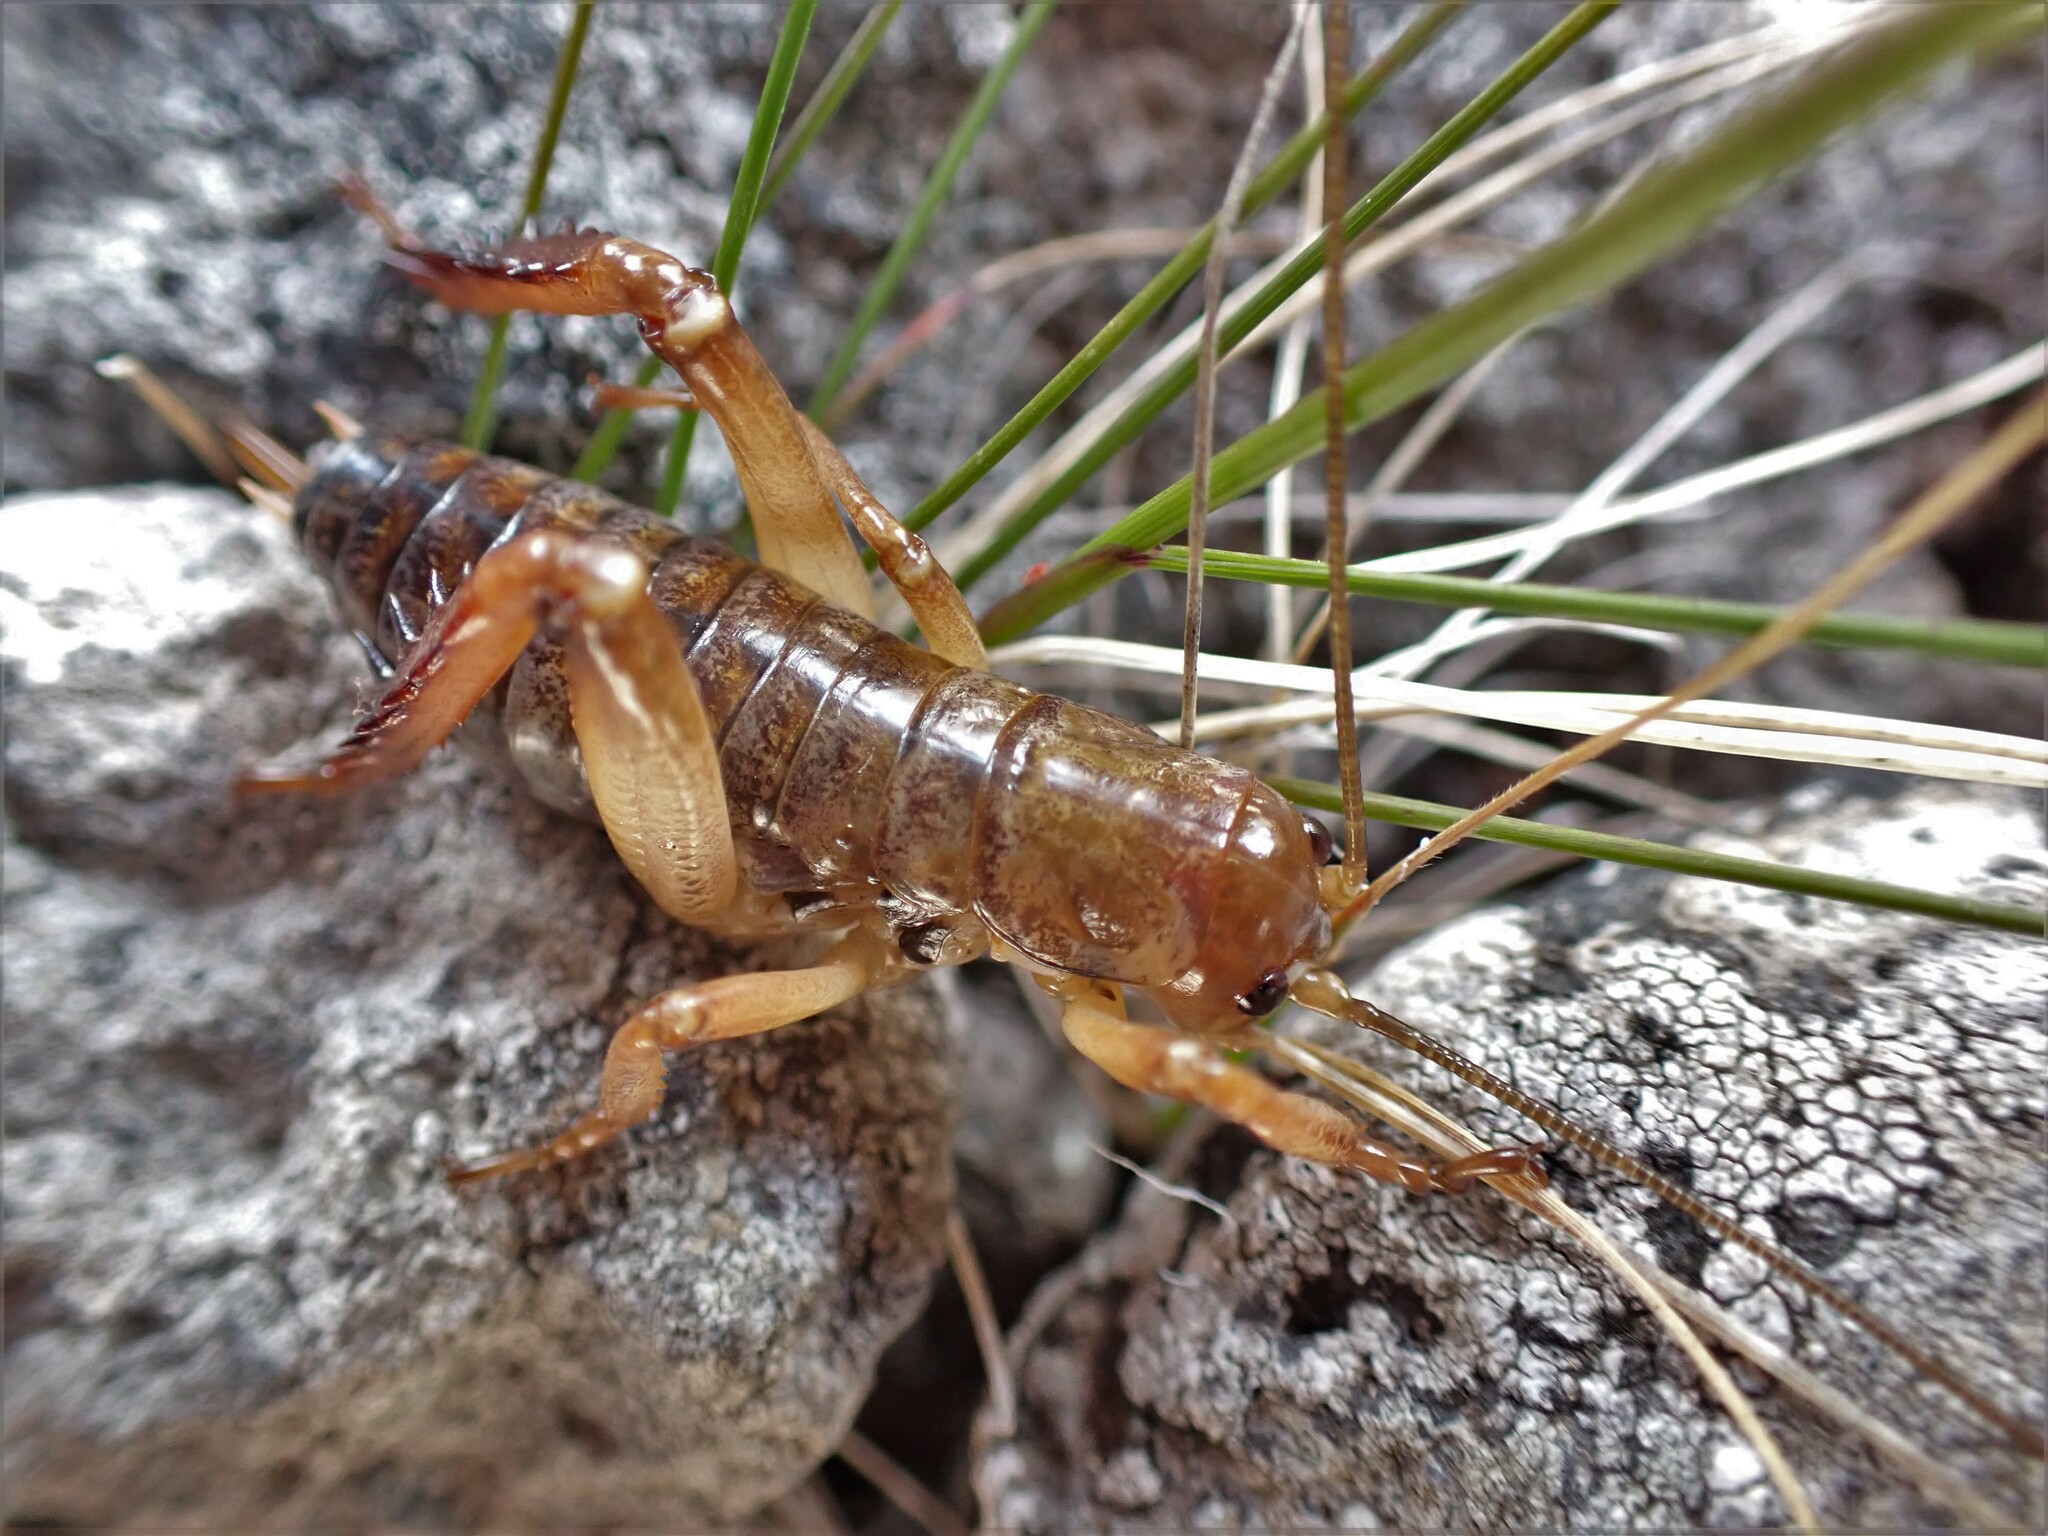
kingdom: Animalia
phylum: Arthropoda
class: Insecta
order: Orthoptera
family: Anostostomatidae
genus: Hemideina
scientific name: Hemideina ricta
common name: Banks peninsula tree weta
